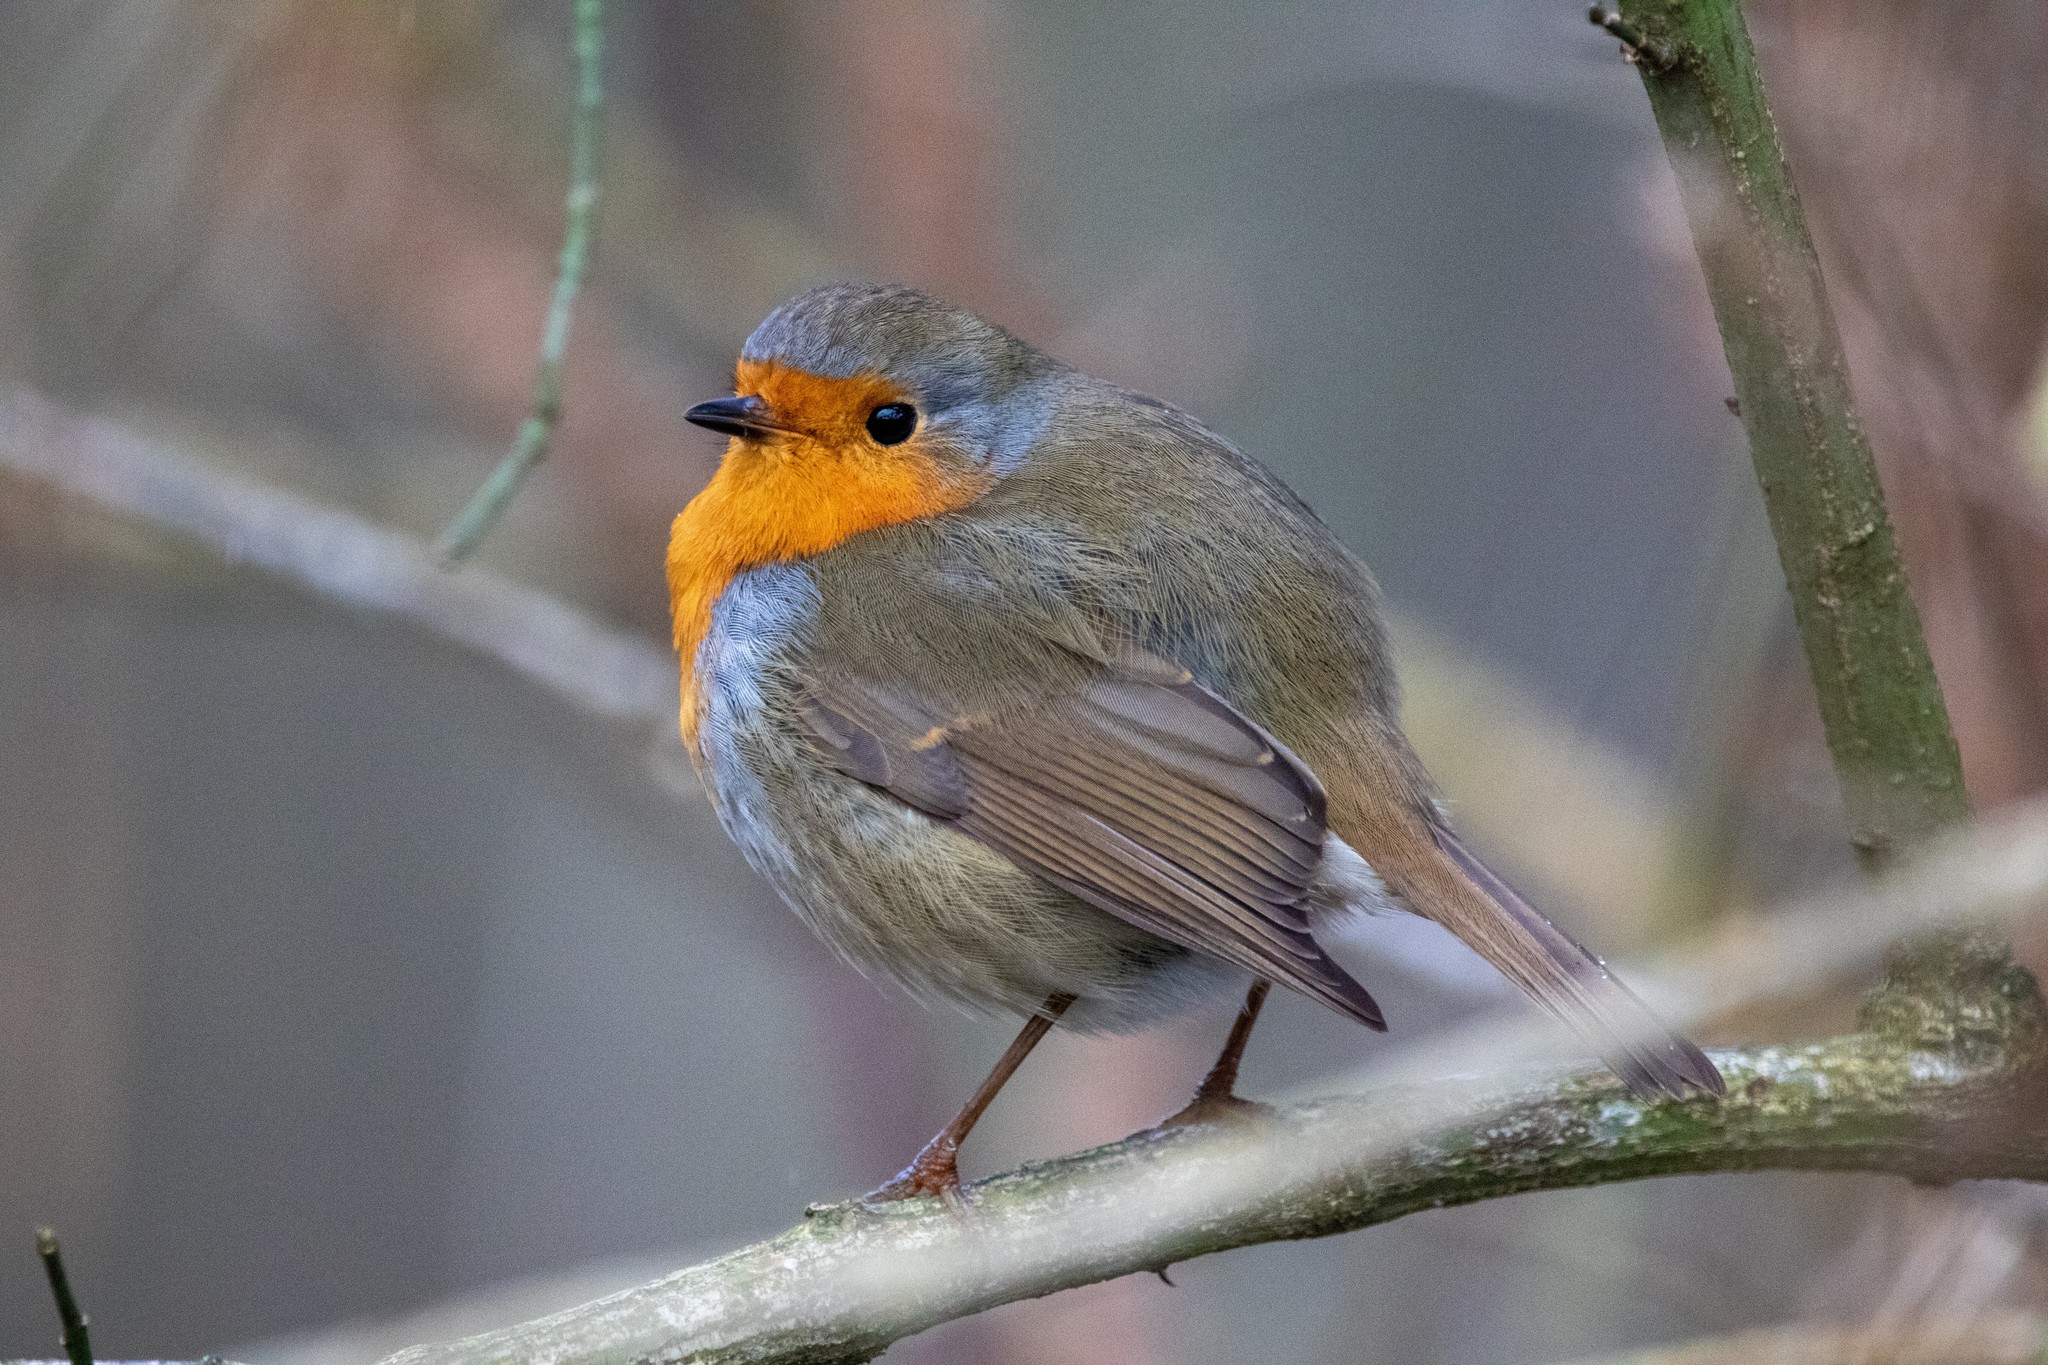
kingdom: Animalia
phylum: Chordata
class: Aves
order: Passeriformes
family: Muscicapidae
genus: Erithacus
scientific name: Erithacus rubecula
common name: European robin
